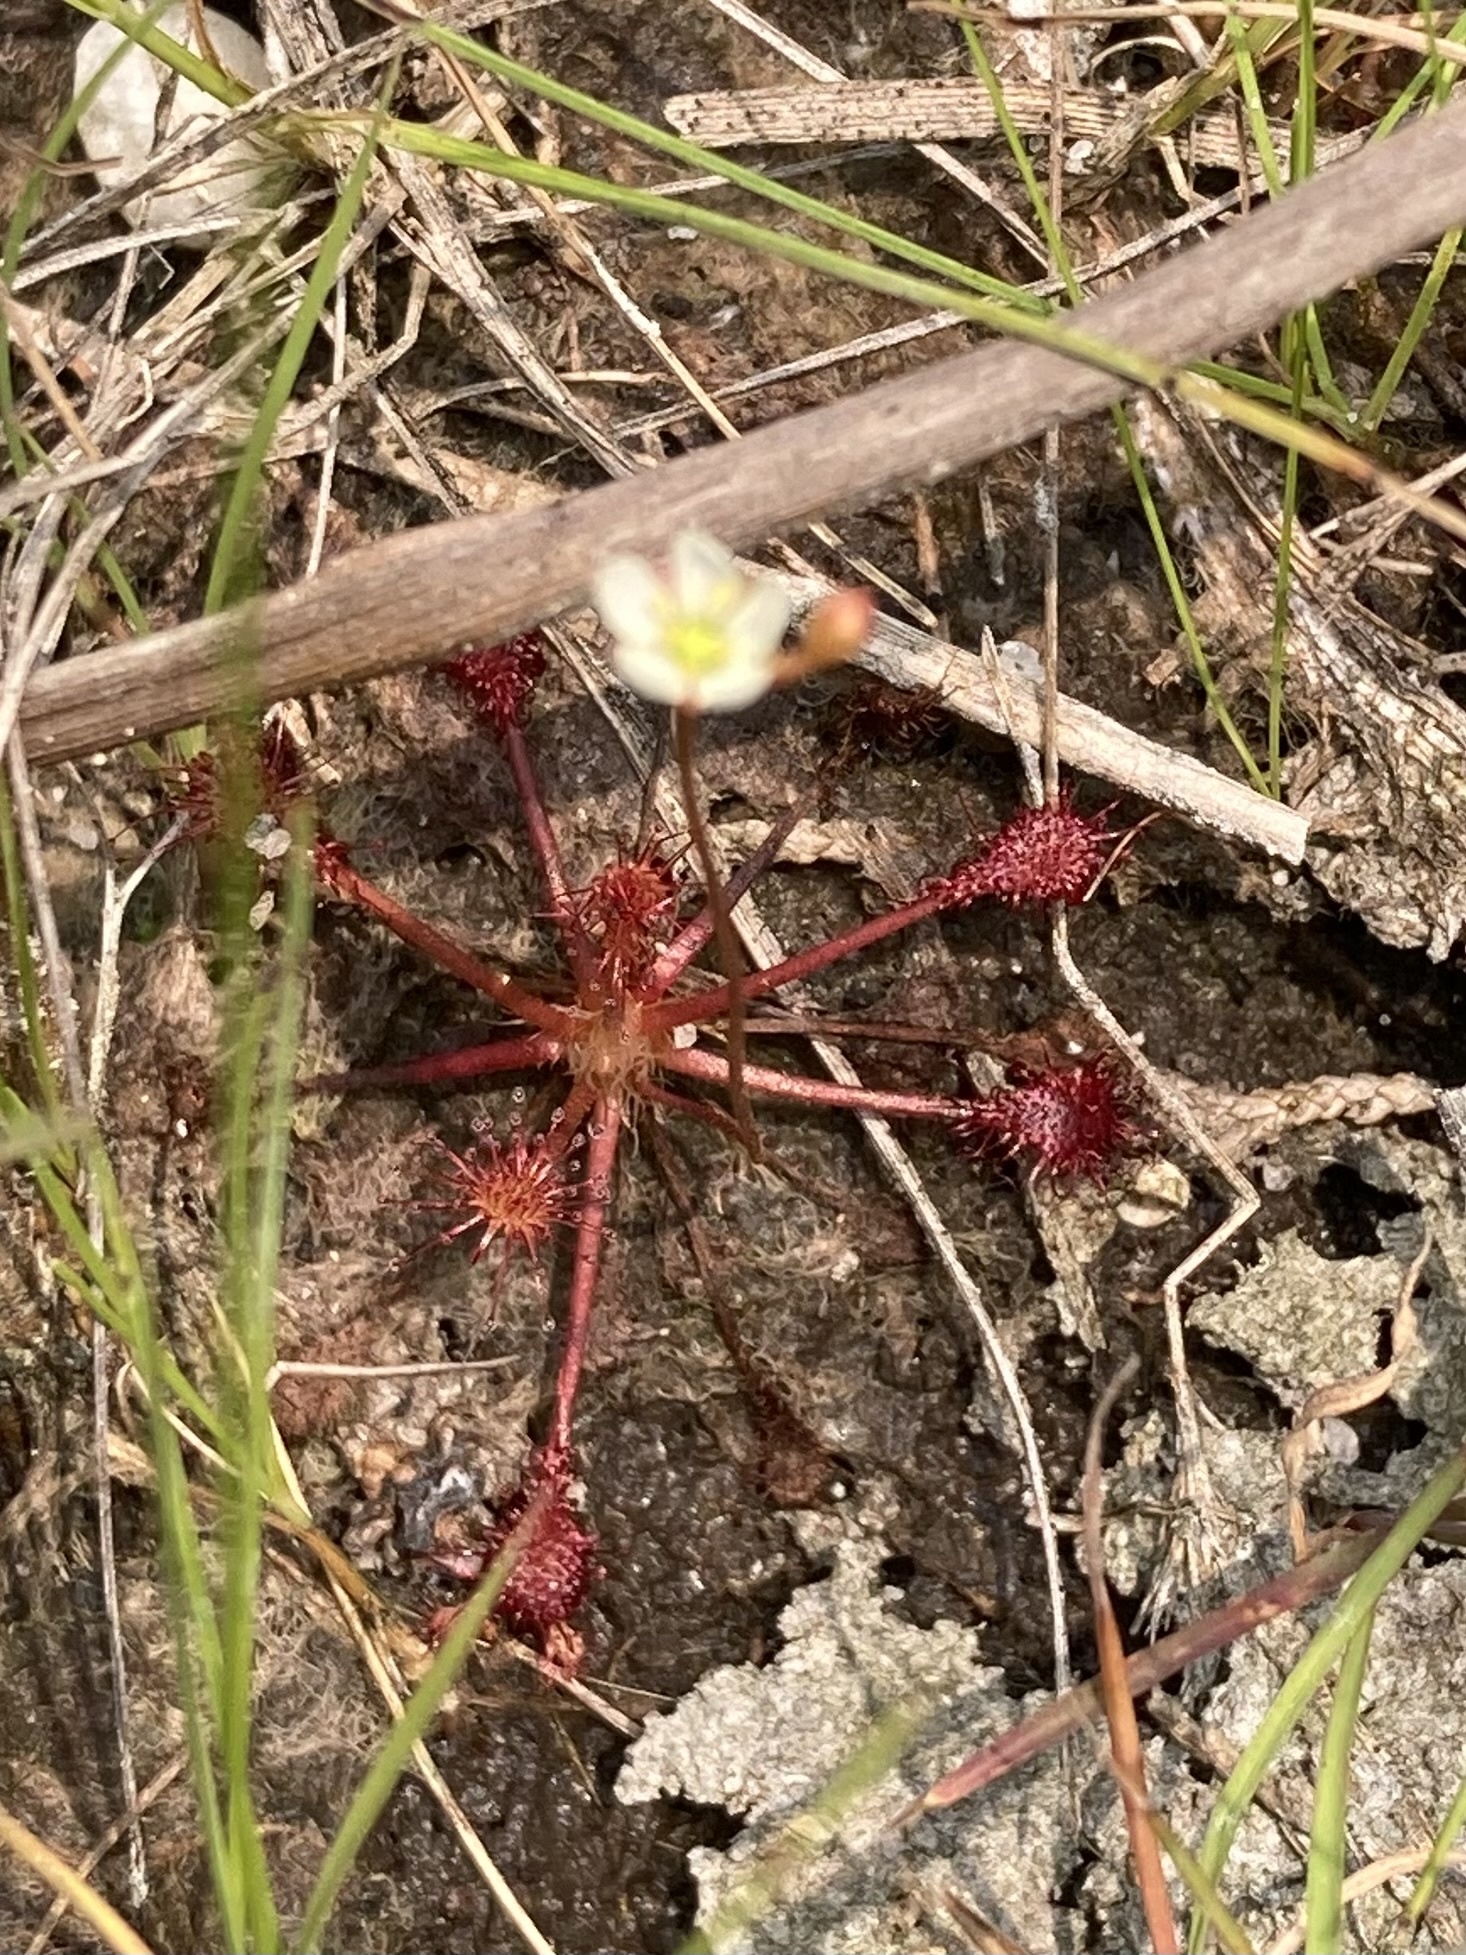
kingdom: Plantae
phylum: Tracheophyta
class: Magnoliopsida
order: Caryophyllales
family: Droseraceae
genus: Drosera
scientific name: Drosera intermedia
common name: Oblong-leaved sundew
